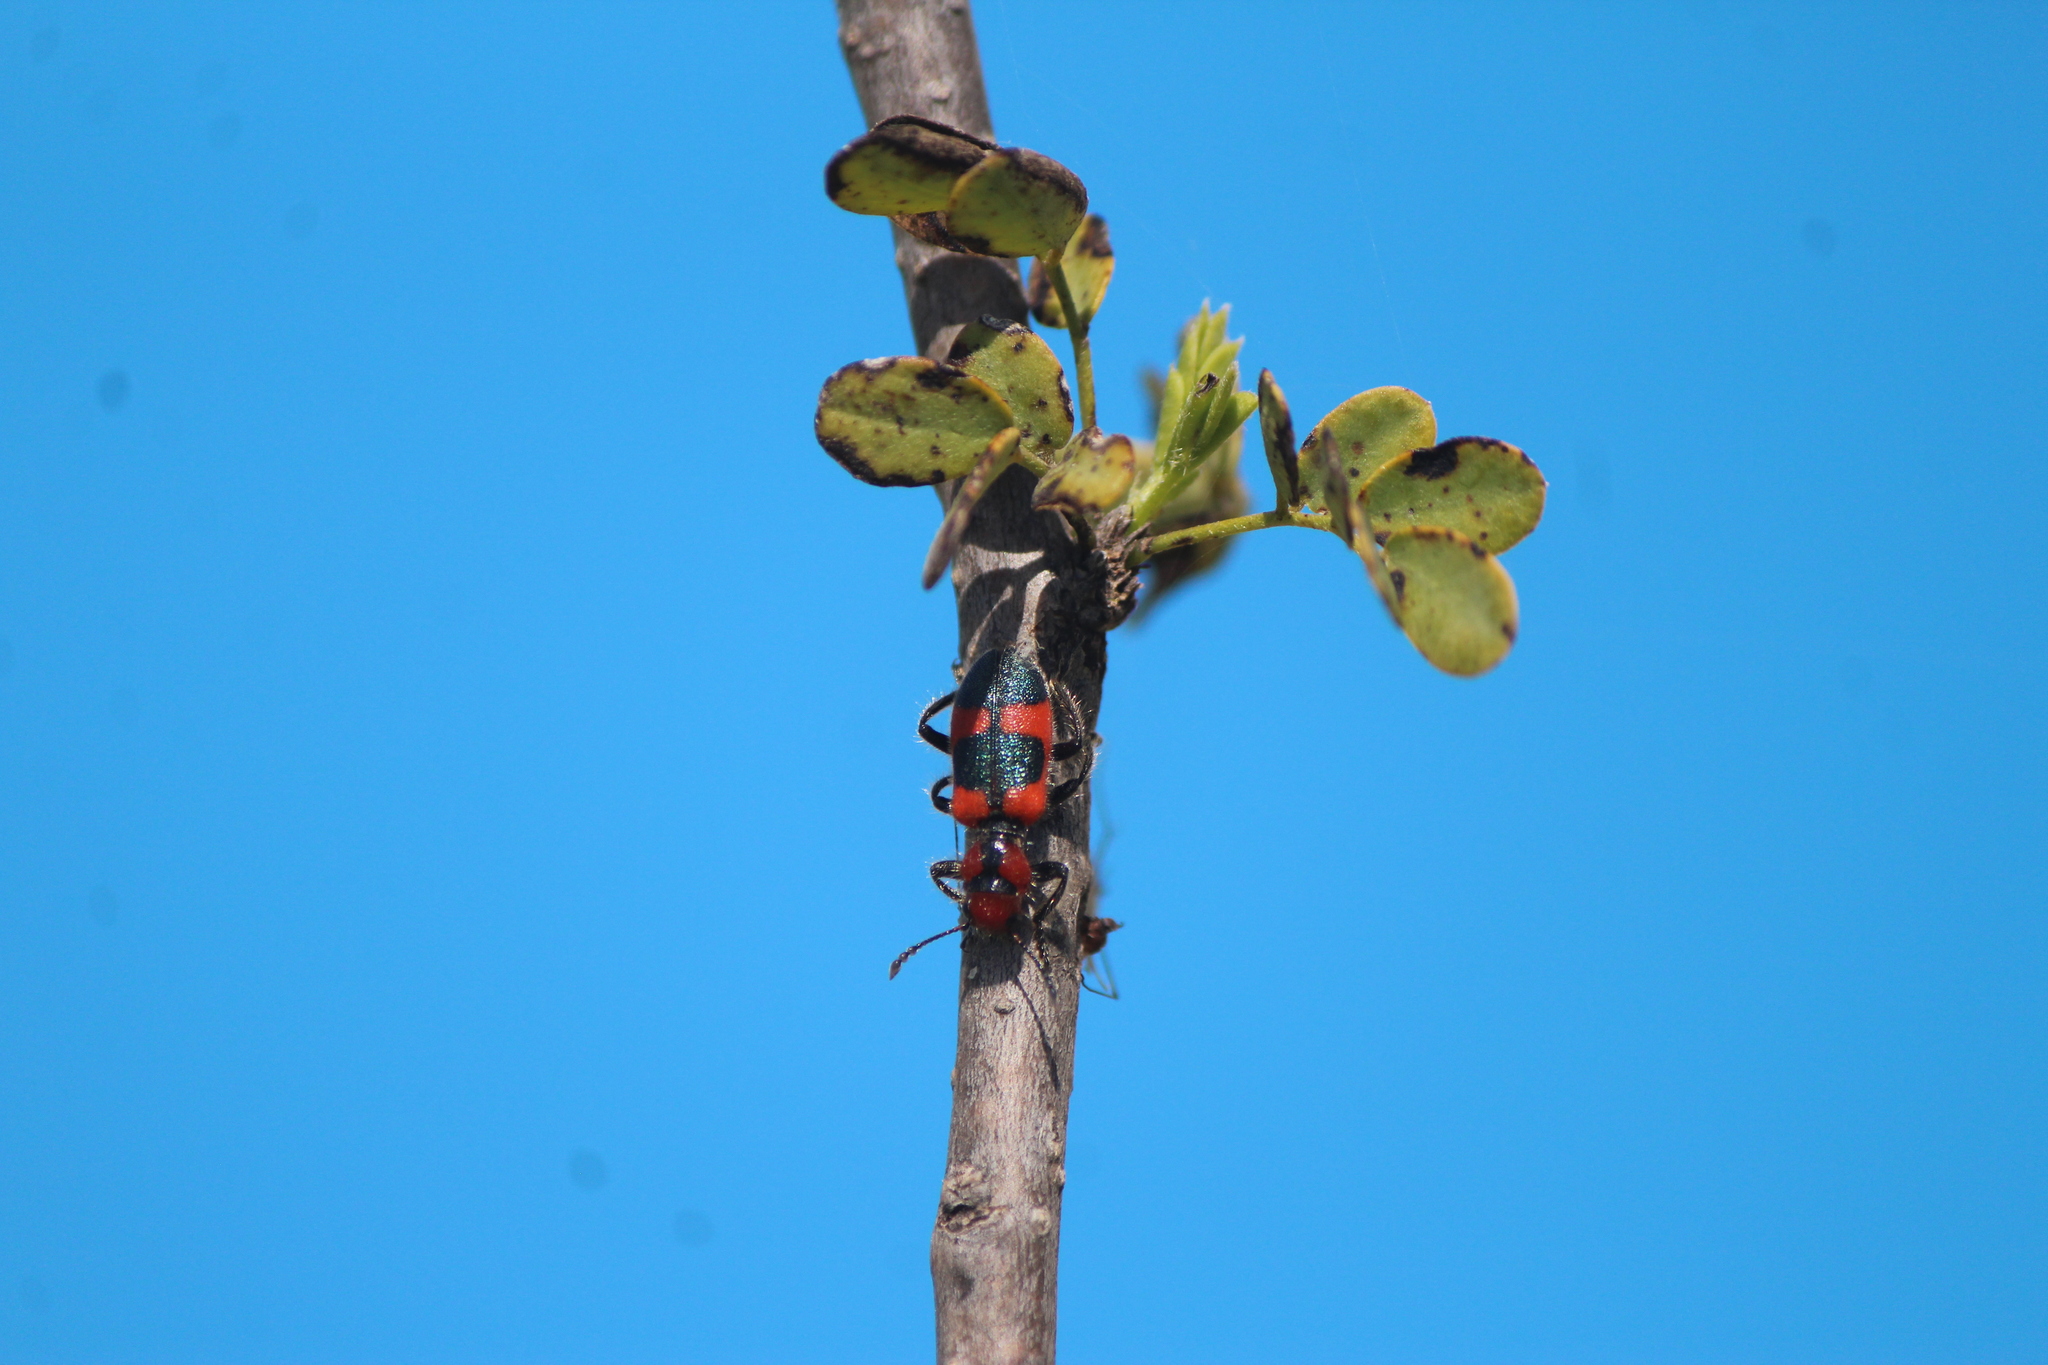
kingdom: Animalia
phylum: Arthropoda
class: Insecta
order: Coleoptera
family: Cleridae
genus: Aulicus
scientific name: Aulicus monticola
